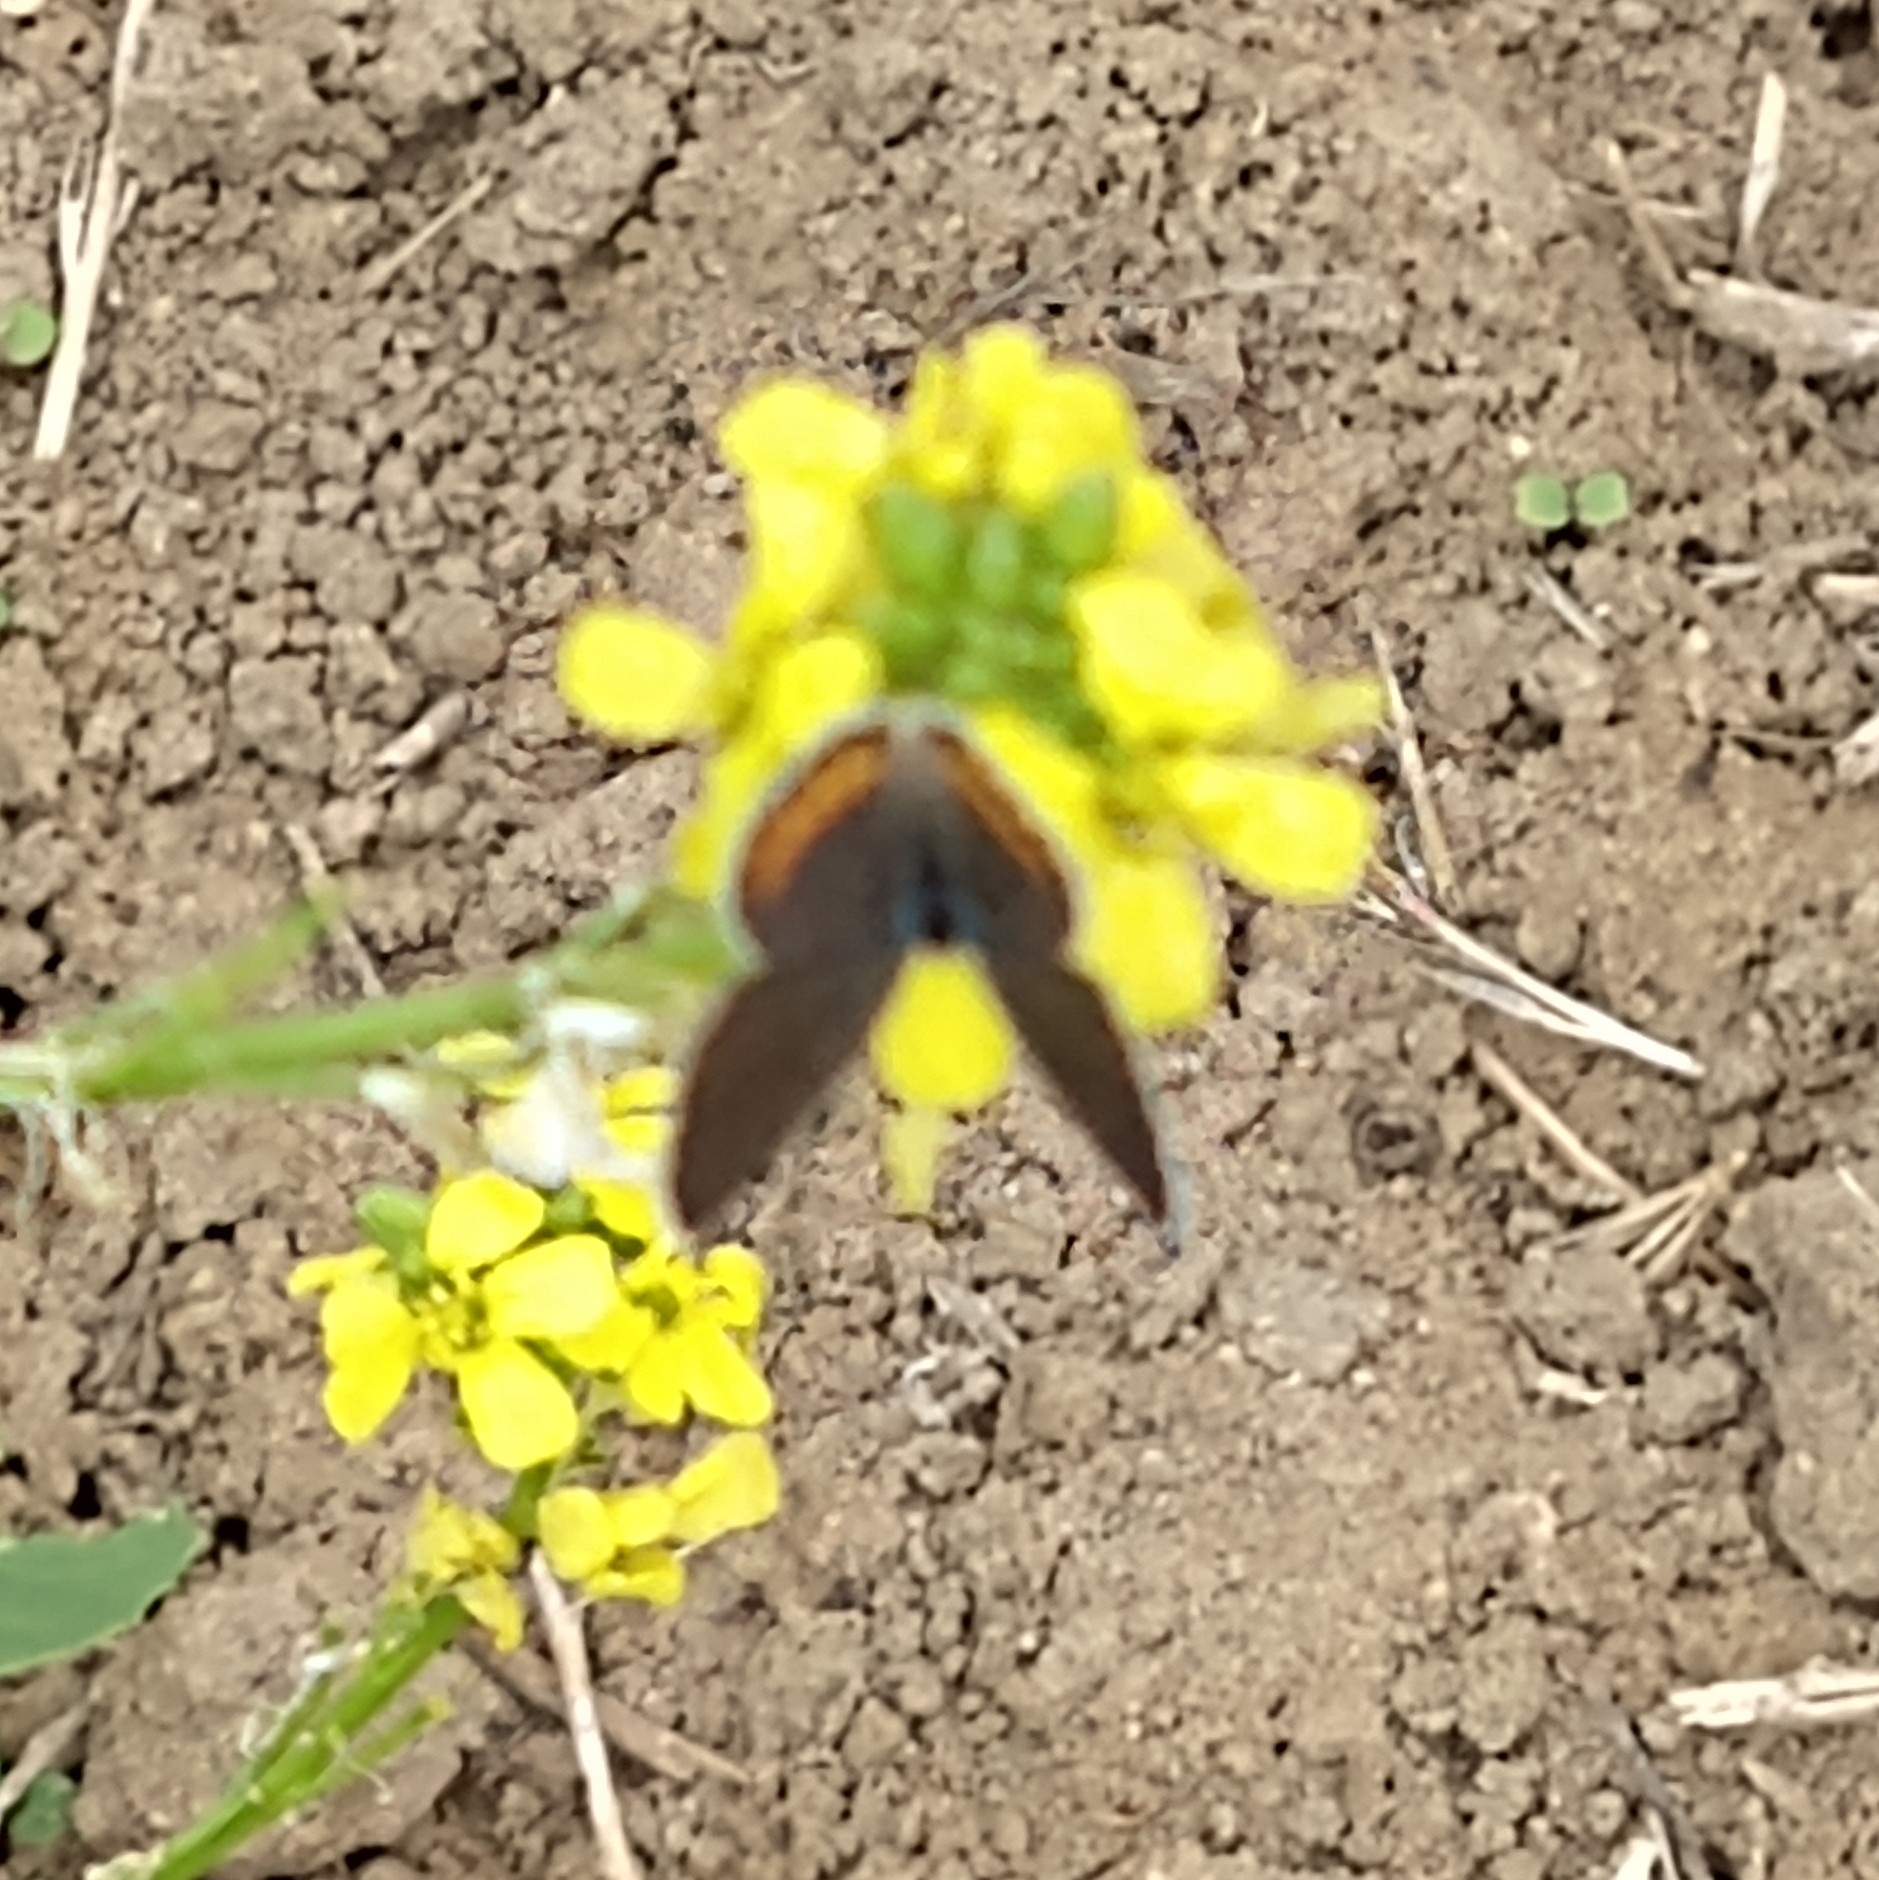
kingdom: Animalia
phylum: Arthropoda
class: Insecta
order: Lepidoptera
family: Lycaenidae
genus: Icaricia
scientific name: Icaricia acmon
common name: Acmon blue
